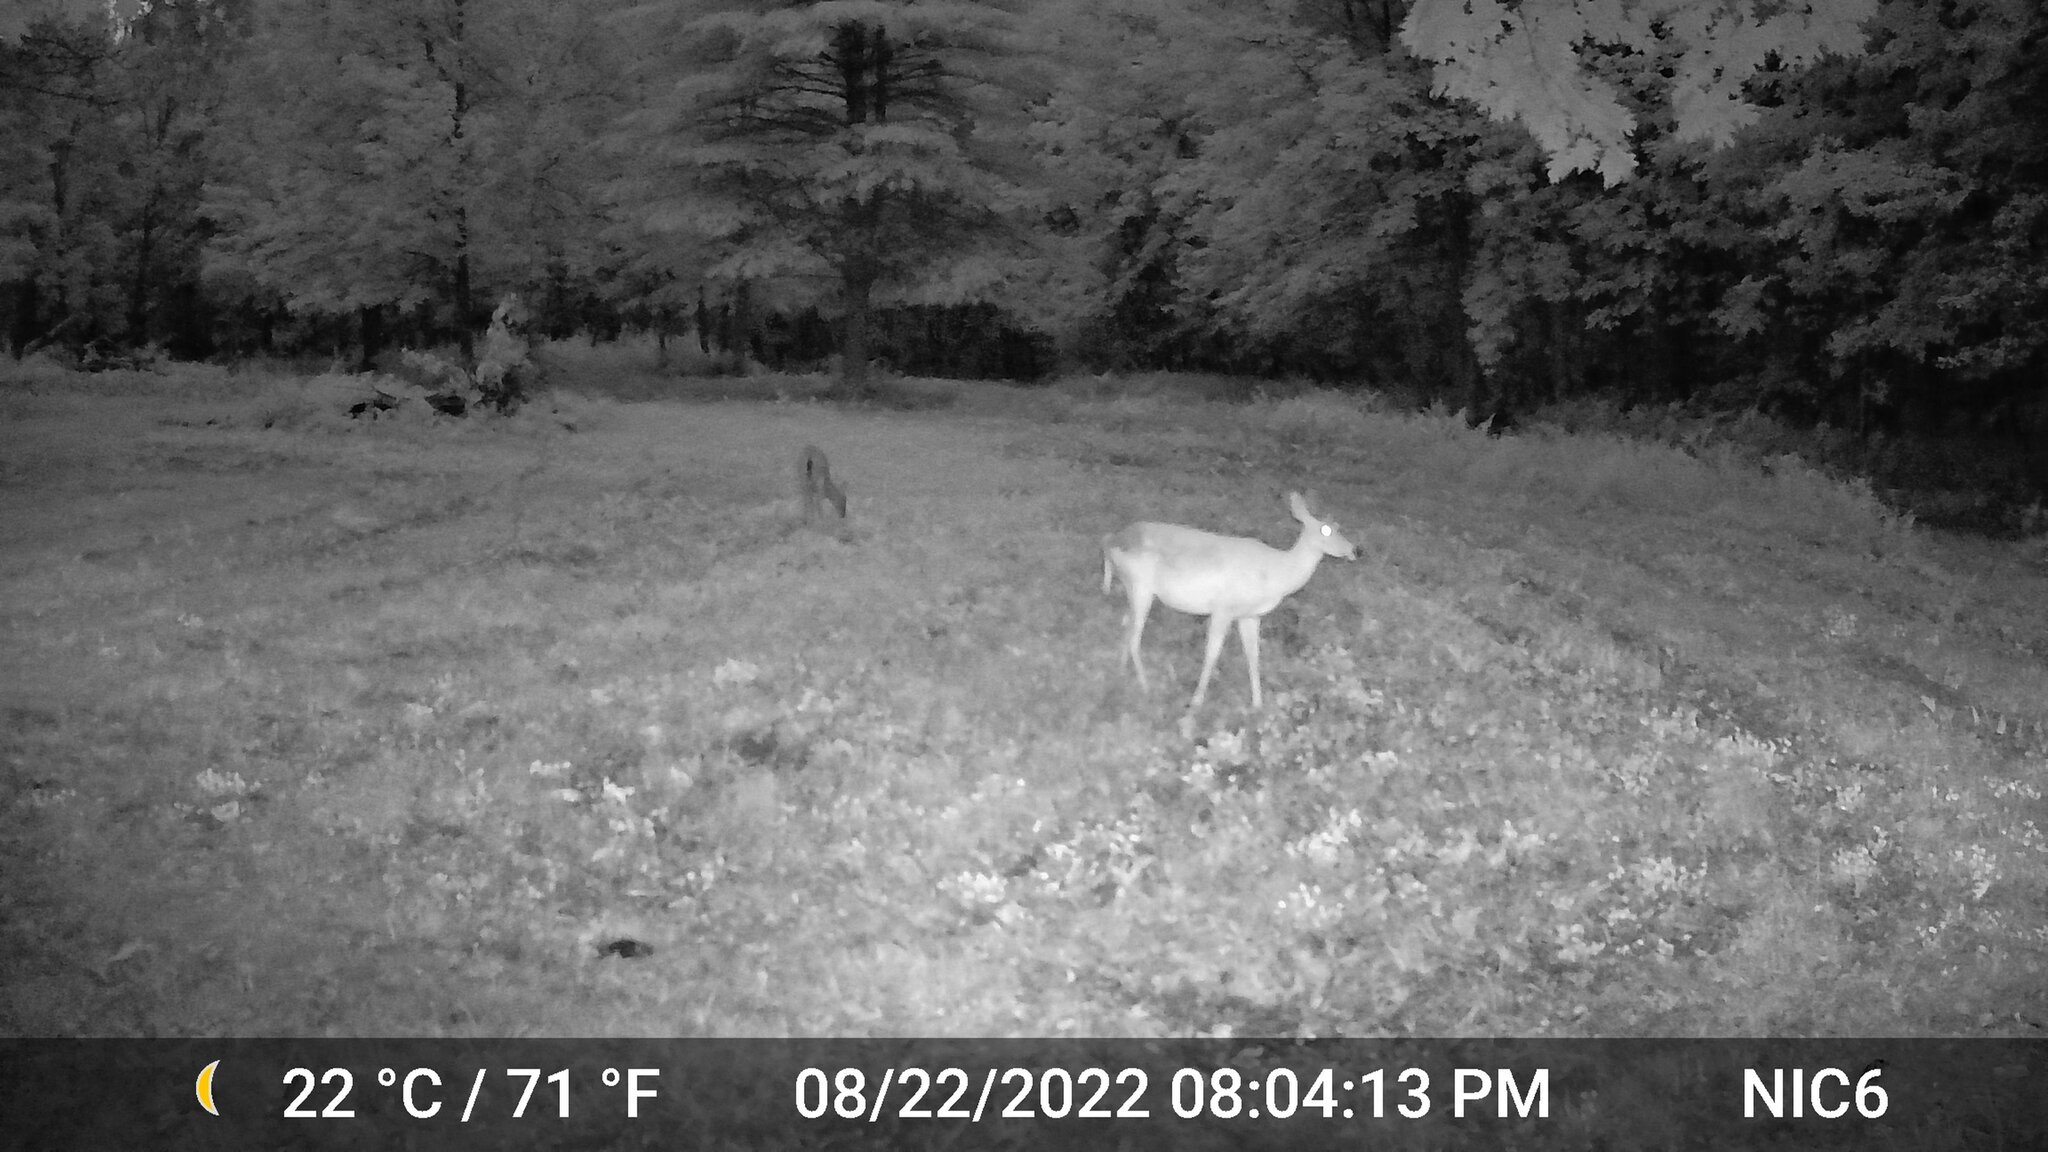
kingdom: Animalia
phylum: Chordata
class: Mammalia
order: Artiodactyla
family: Cervidae
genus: Odocoileus
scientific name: Odocoileus virginianus
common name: White-tailed deer
